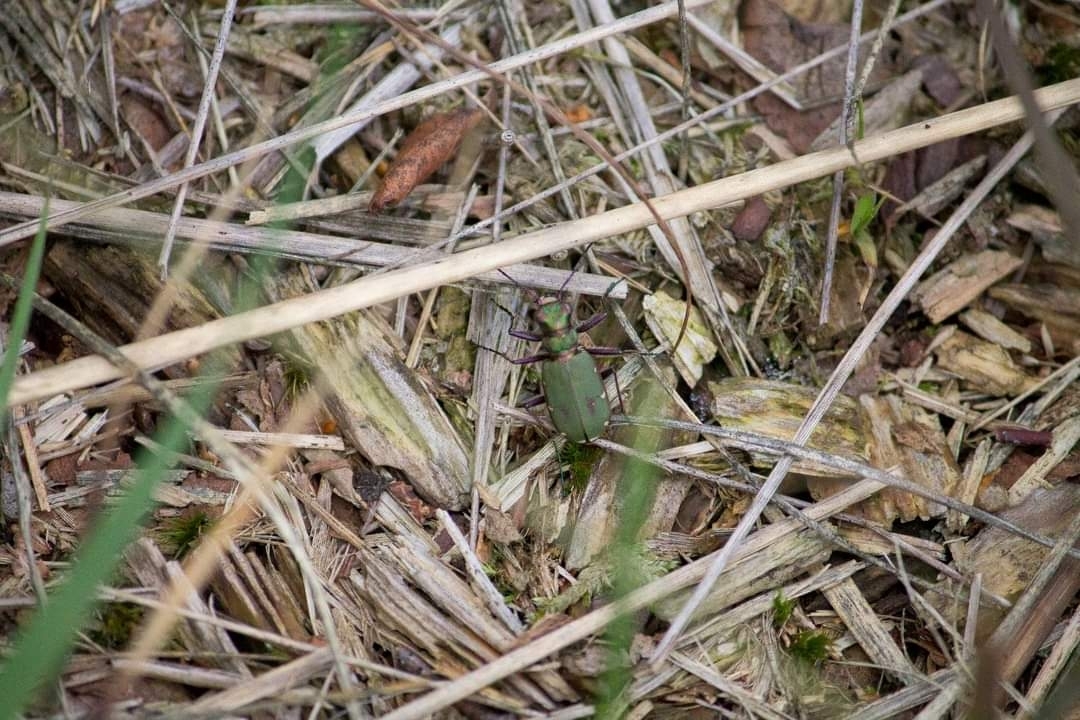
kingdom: Animalia
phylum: Arthropoda
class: Insecta
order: Coleoptera
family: Carabidae
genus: Cicindela
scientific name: Cicindela campestris
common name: Common tiger beetle
